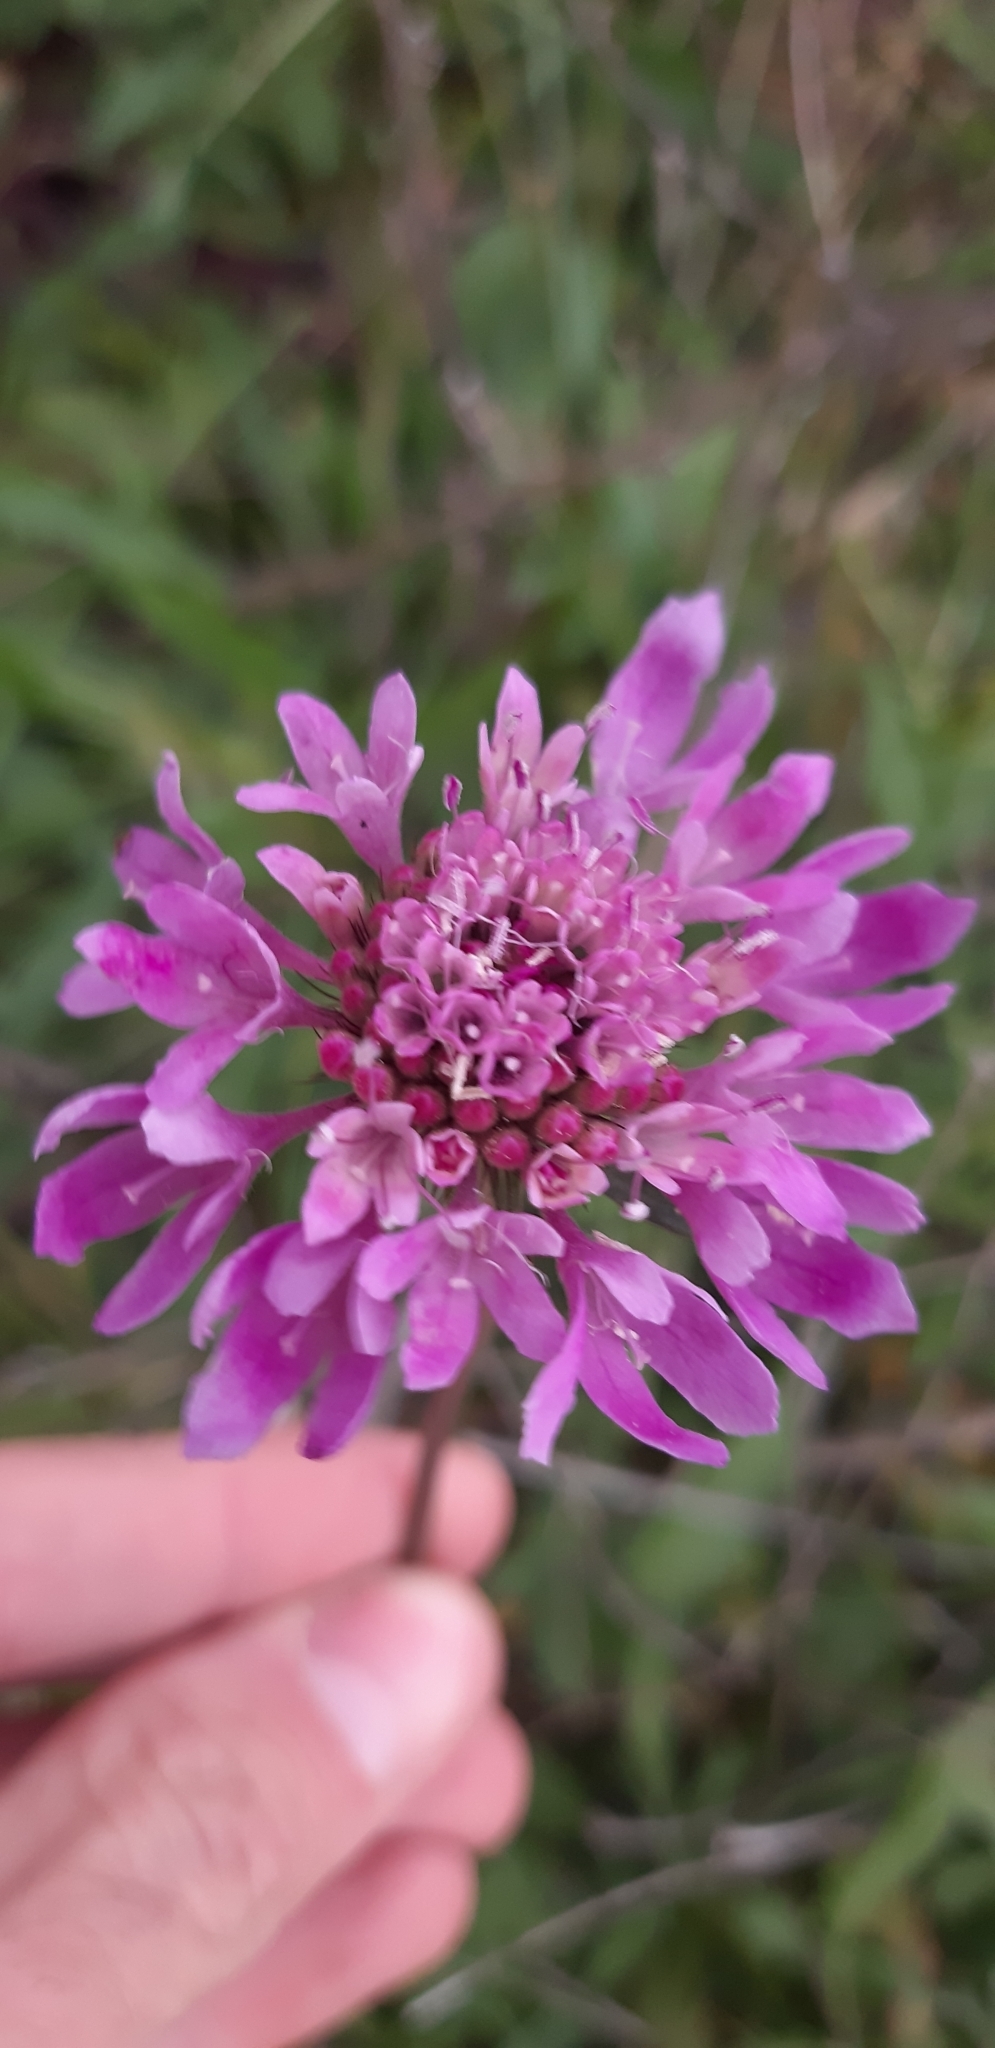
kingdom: Plantae
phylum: Tracheophyta
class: Magnoliopsida
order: Dipsacales
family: Caprifoliaceae
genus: Sixalix
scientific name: Sixalix atropurpurea
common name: Sweet scabious
